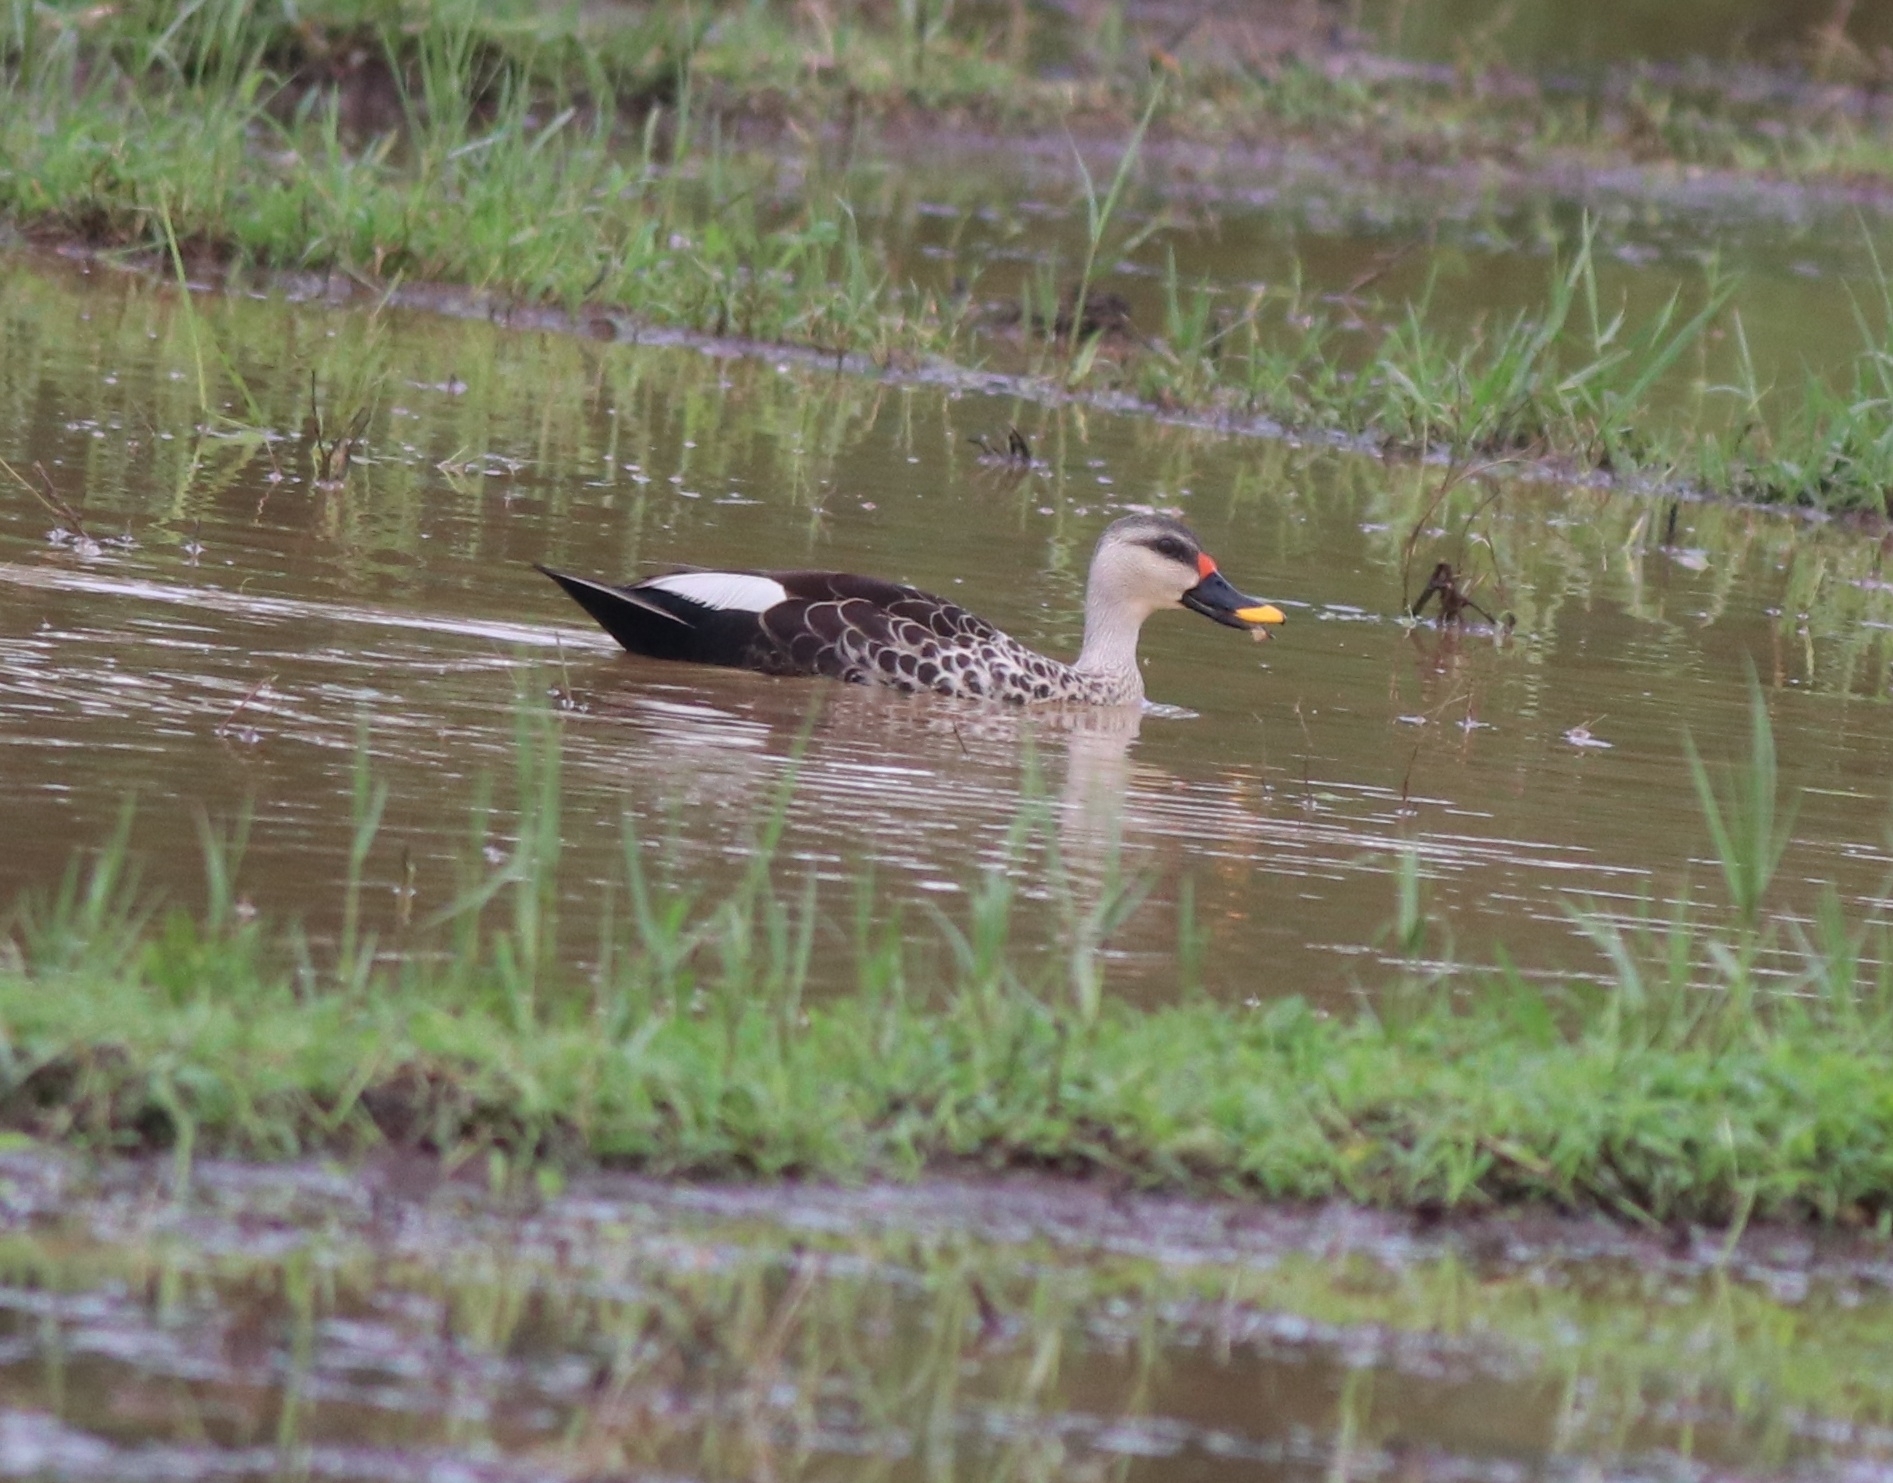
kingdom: Animalia
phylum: Chordata
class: Aves
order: Anseriformes
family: Anatidae
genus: Anas
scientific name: Anas poecilorhyncha
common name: Indian spot-billed duck
